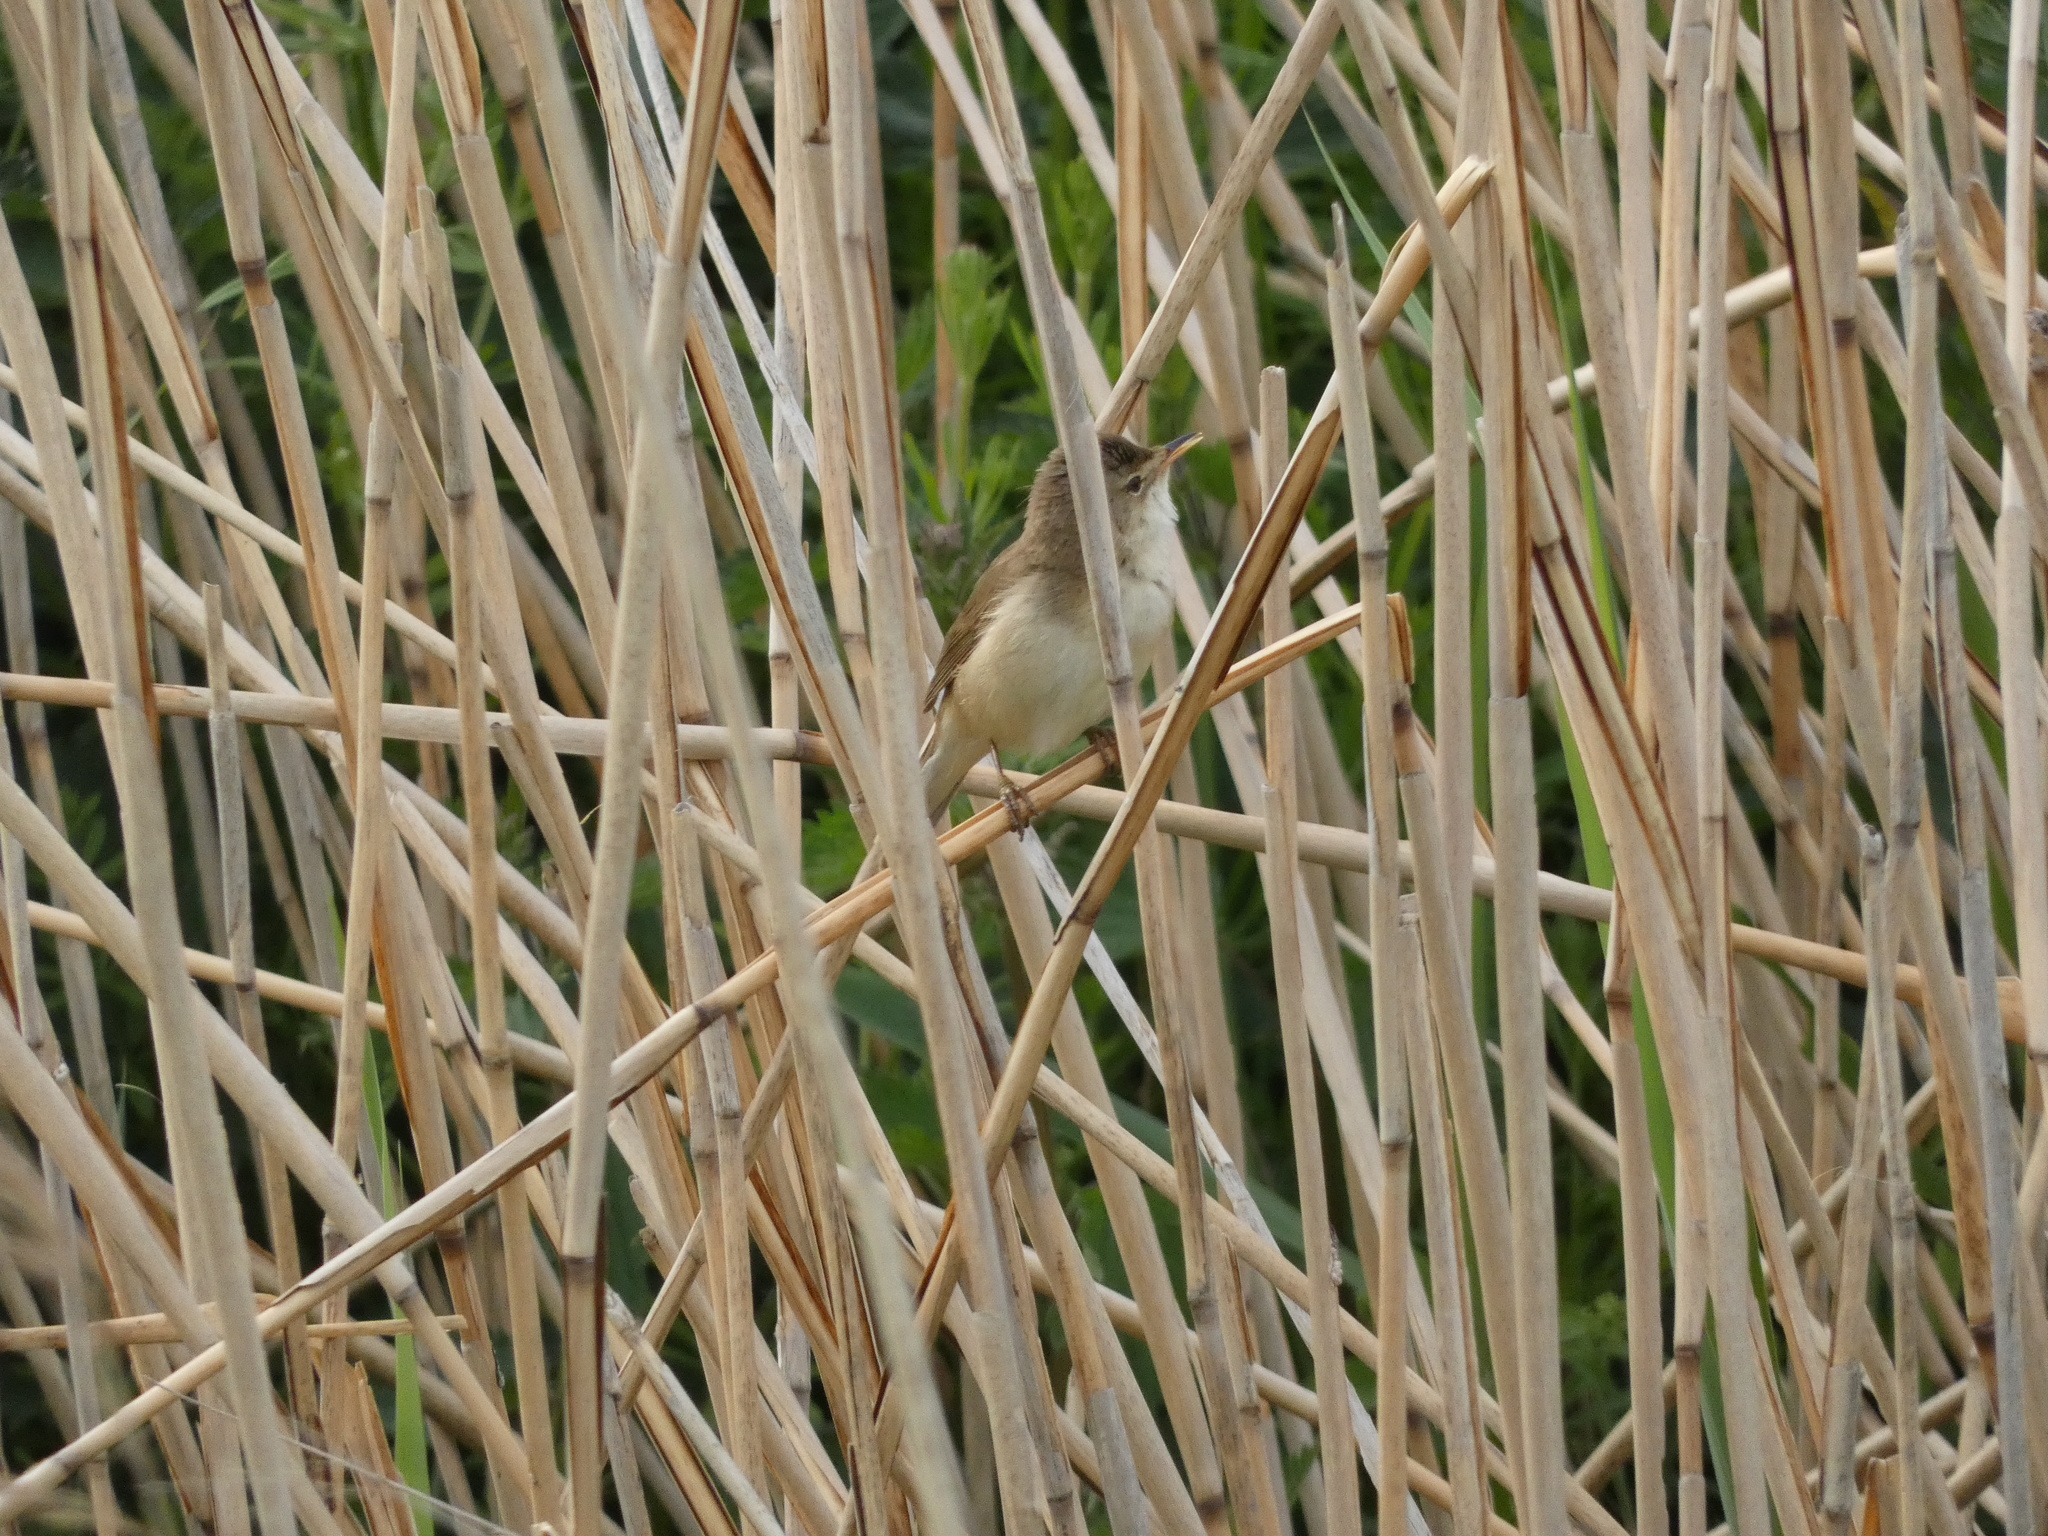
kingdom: Animalia
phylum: Chordata
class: Aves
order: Passeriformes
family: Acrocephalidae
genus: Acrocephalus
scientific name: Acrocephalus scirpaceus
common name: Eurasian reed warbler
